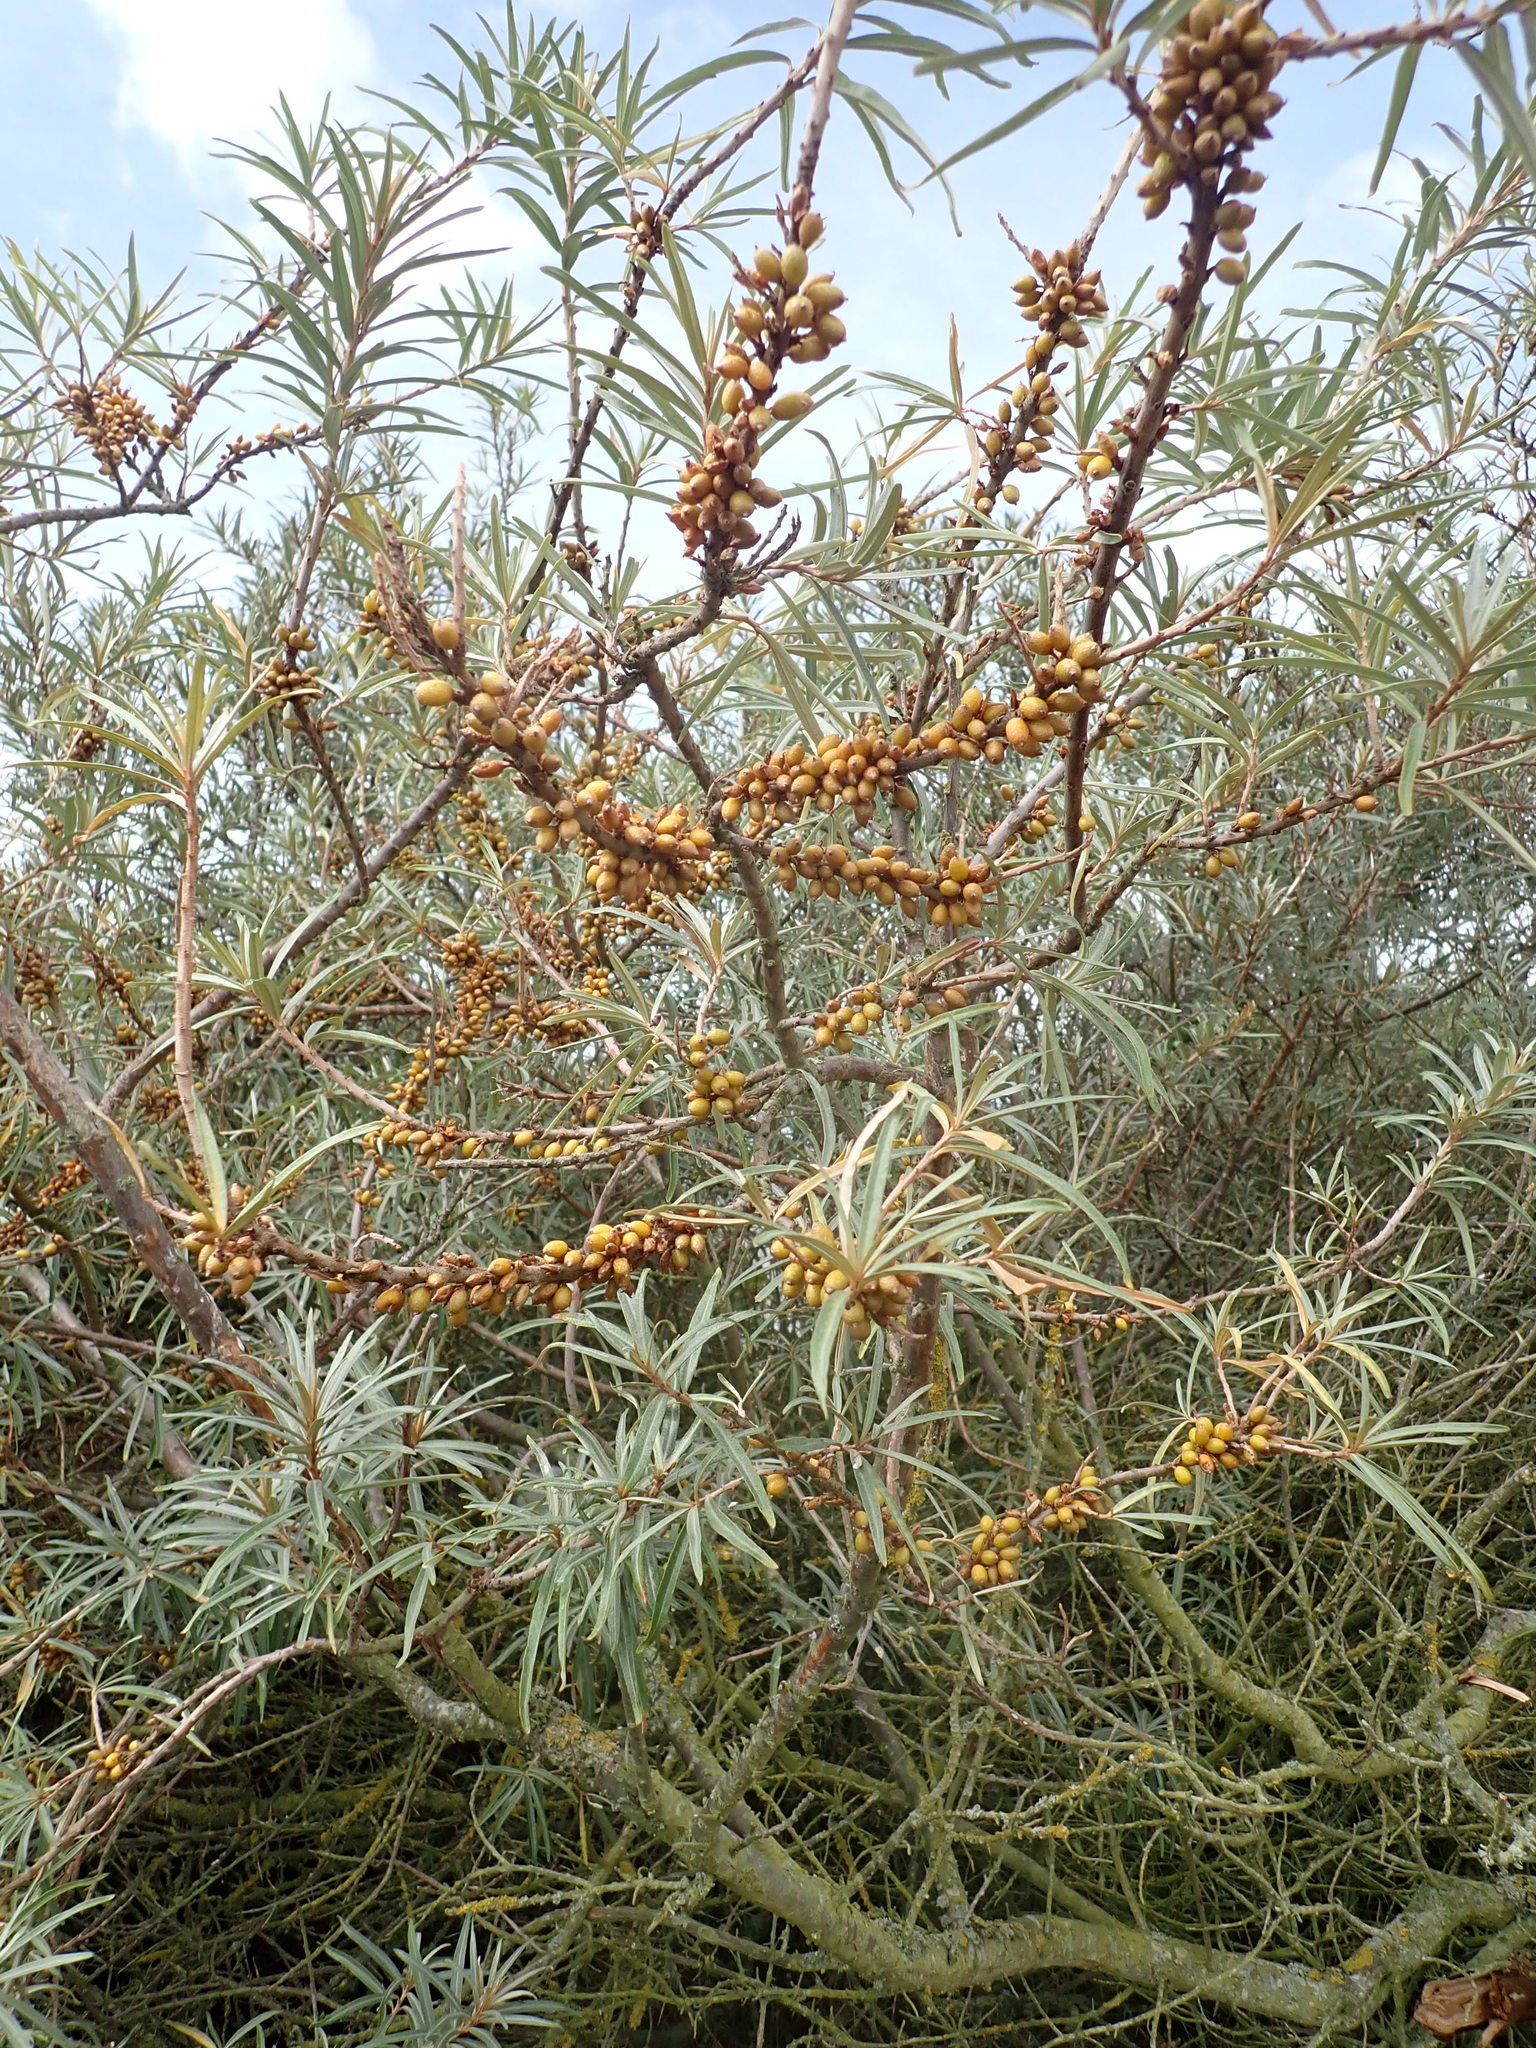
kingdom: Plantae
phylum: Tracheophyta
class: Magnoliopsida
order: Rosales
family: Elaeagnaceae
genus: Hippophae
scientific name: Hippophae rhamnoides
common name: Sea-buckthorn
